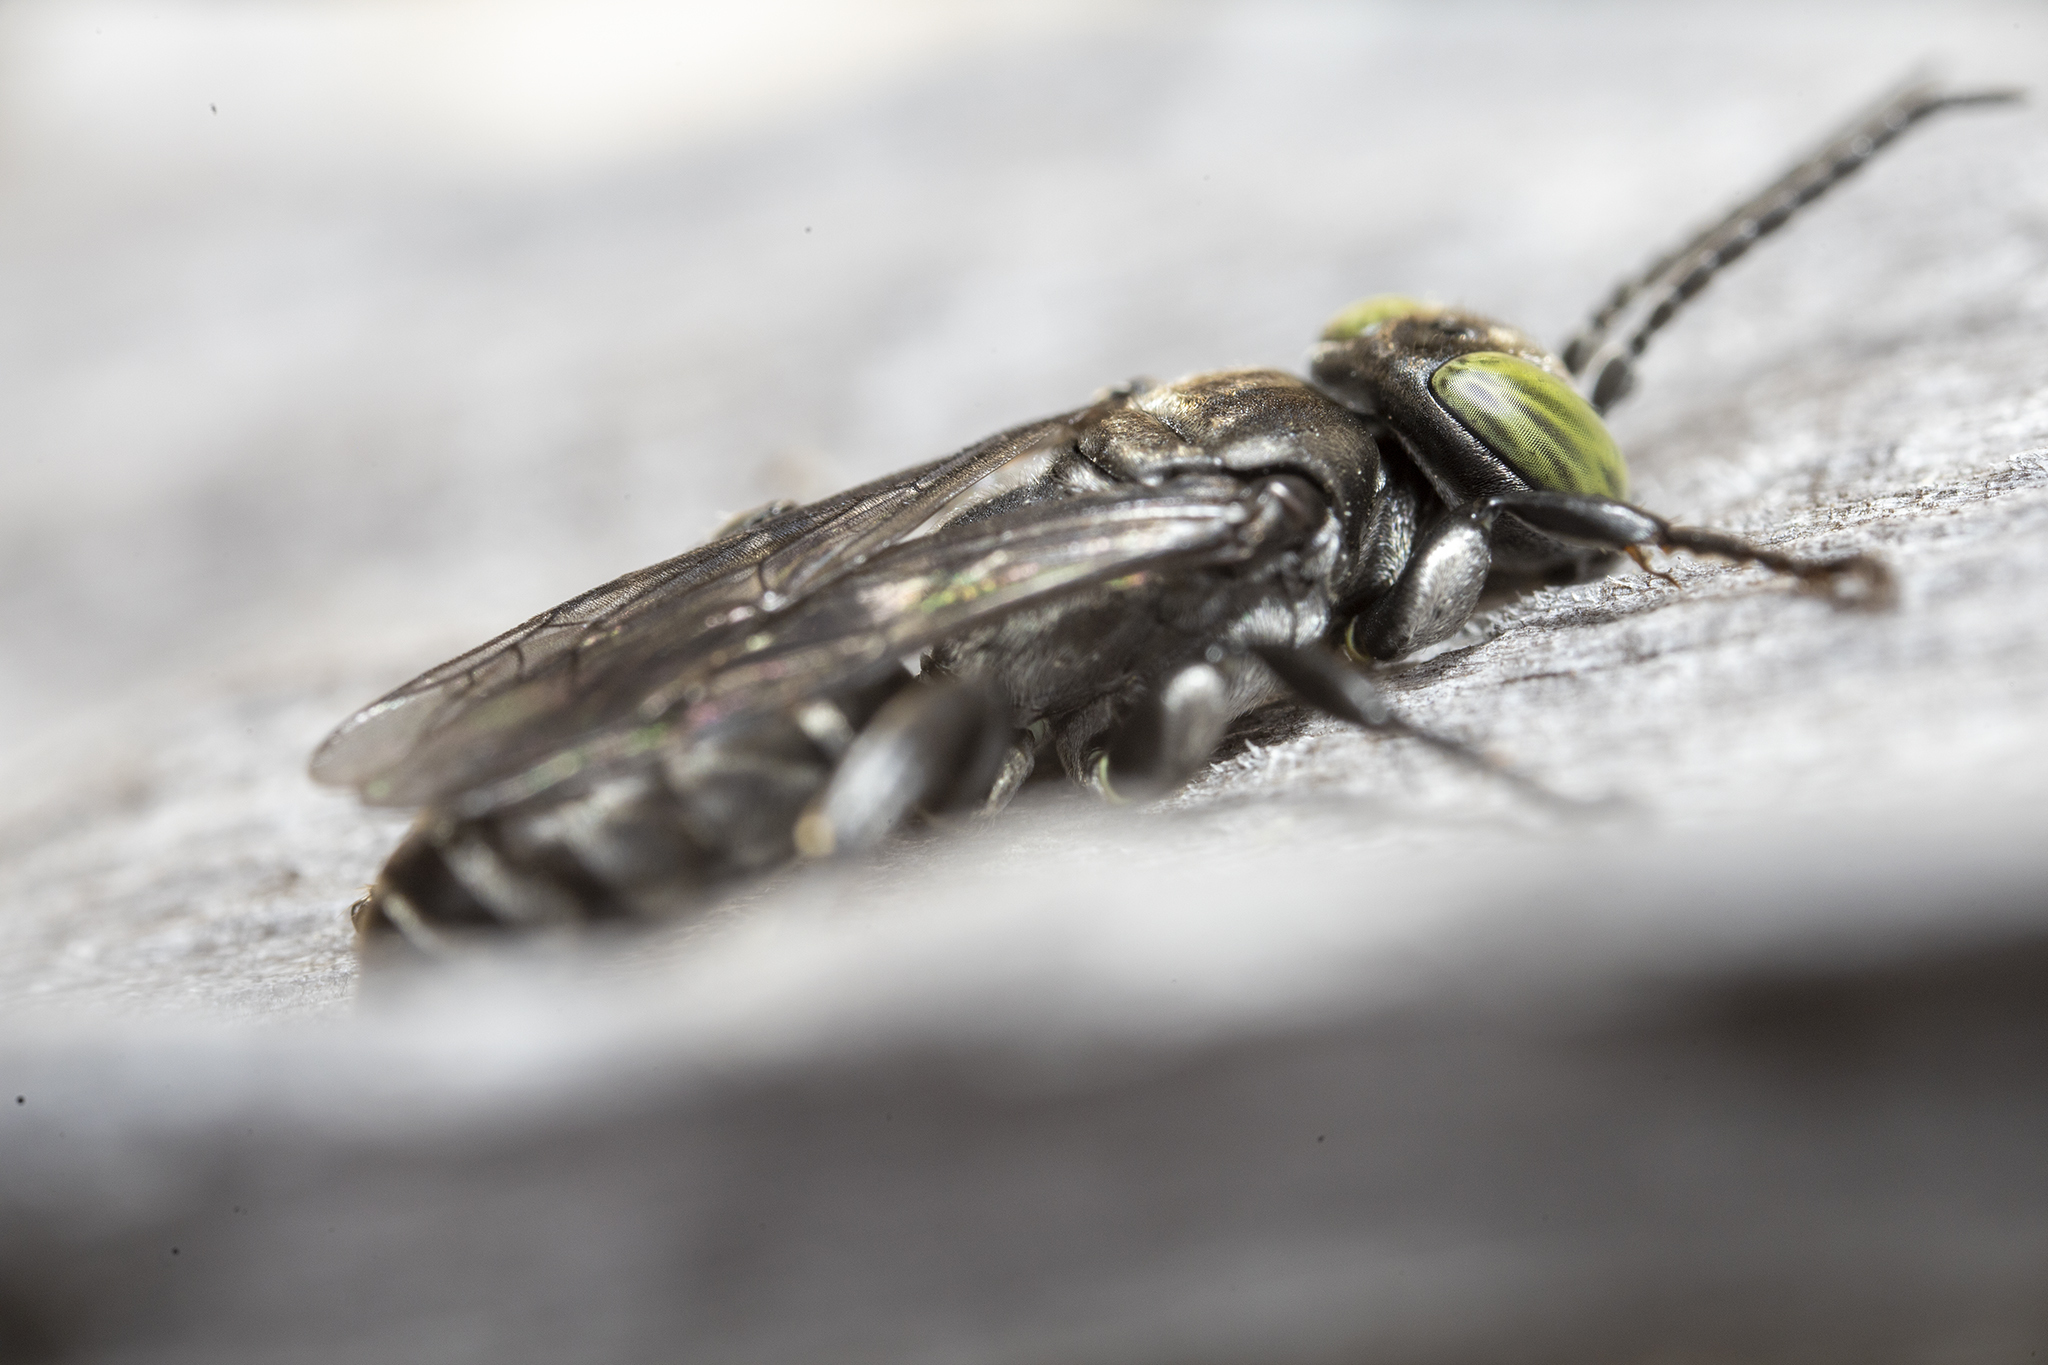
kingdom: Animalia
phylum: Arthropoda
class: Insecta
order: Hymenoptera
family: Crabronidae
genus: Tachysphex
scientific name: Tachysphex nigerrimus
